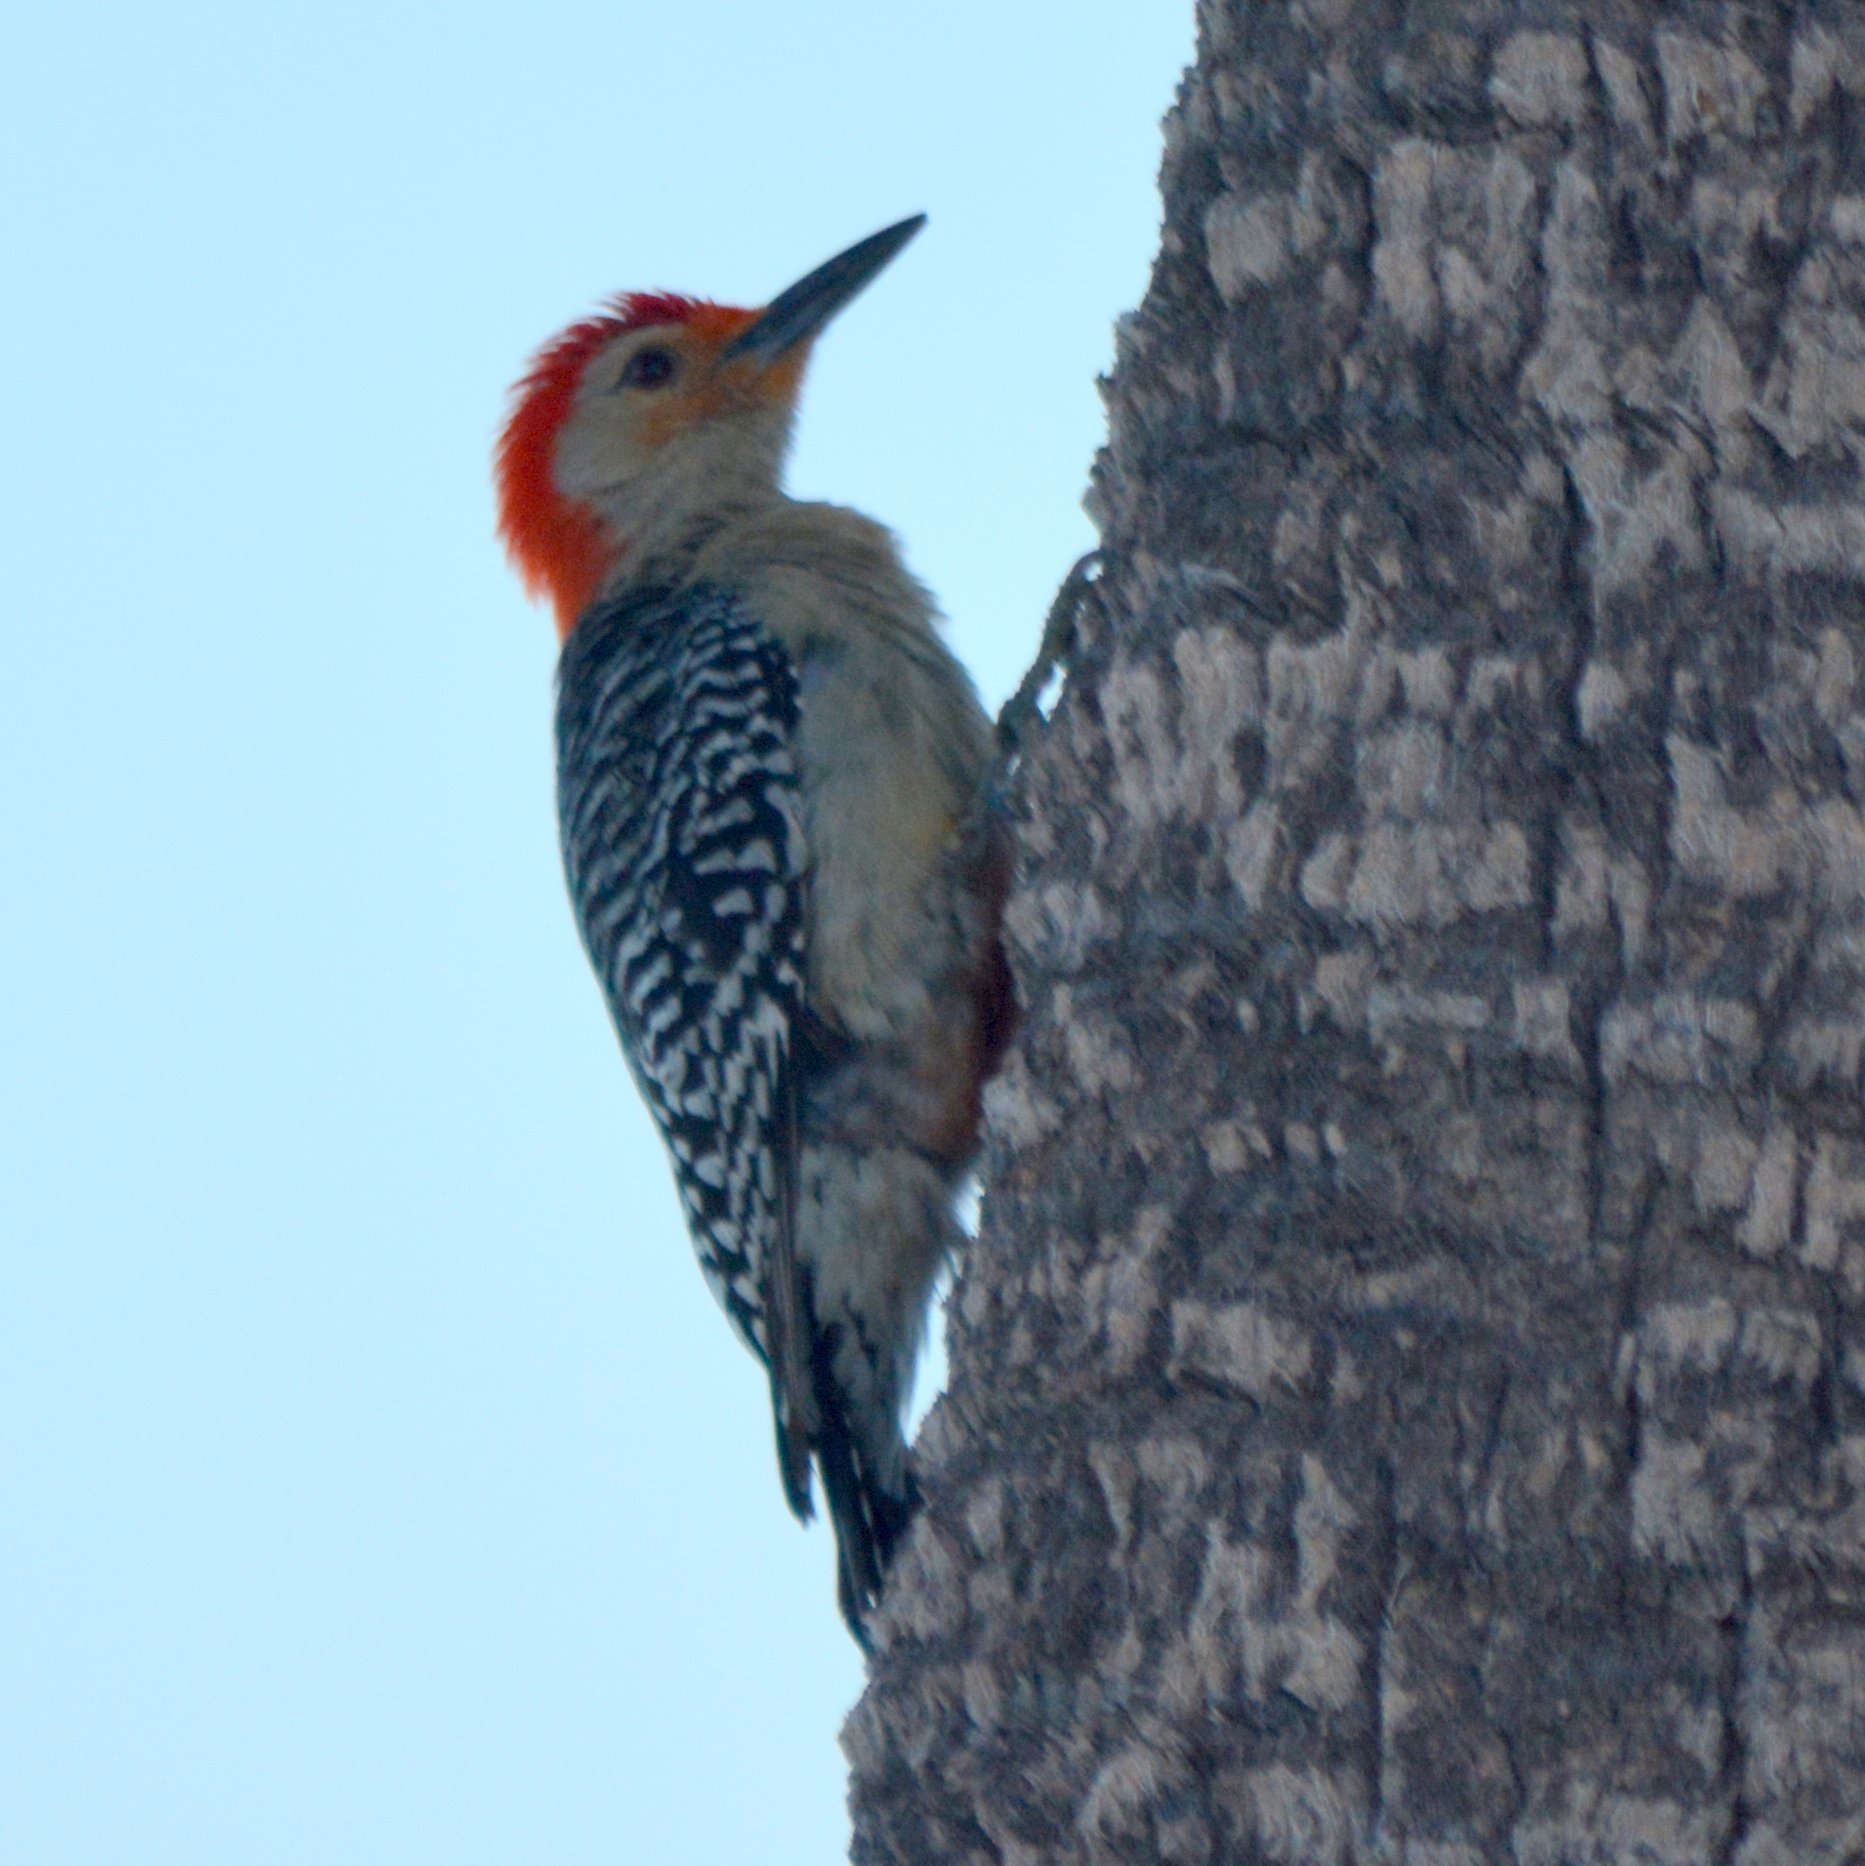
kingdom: Animalia
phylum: Chordata
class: Aves
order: Piciformes
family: Picidae
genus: Melanerpes
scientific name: Melanerpes carolinus
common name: Red-bellied woodpecker
